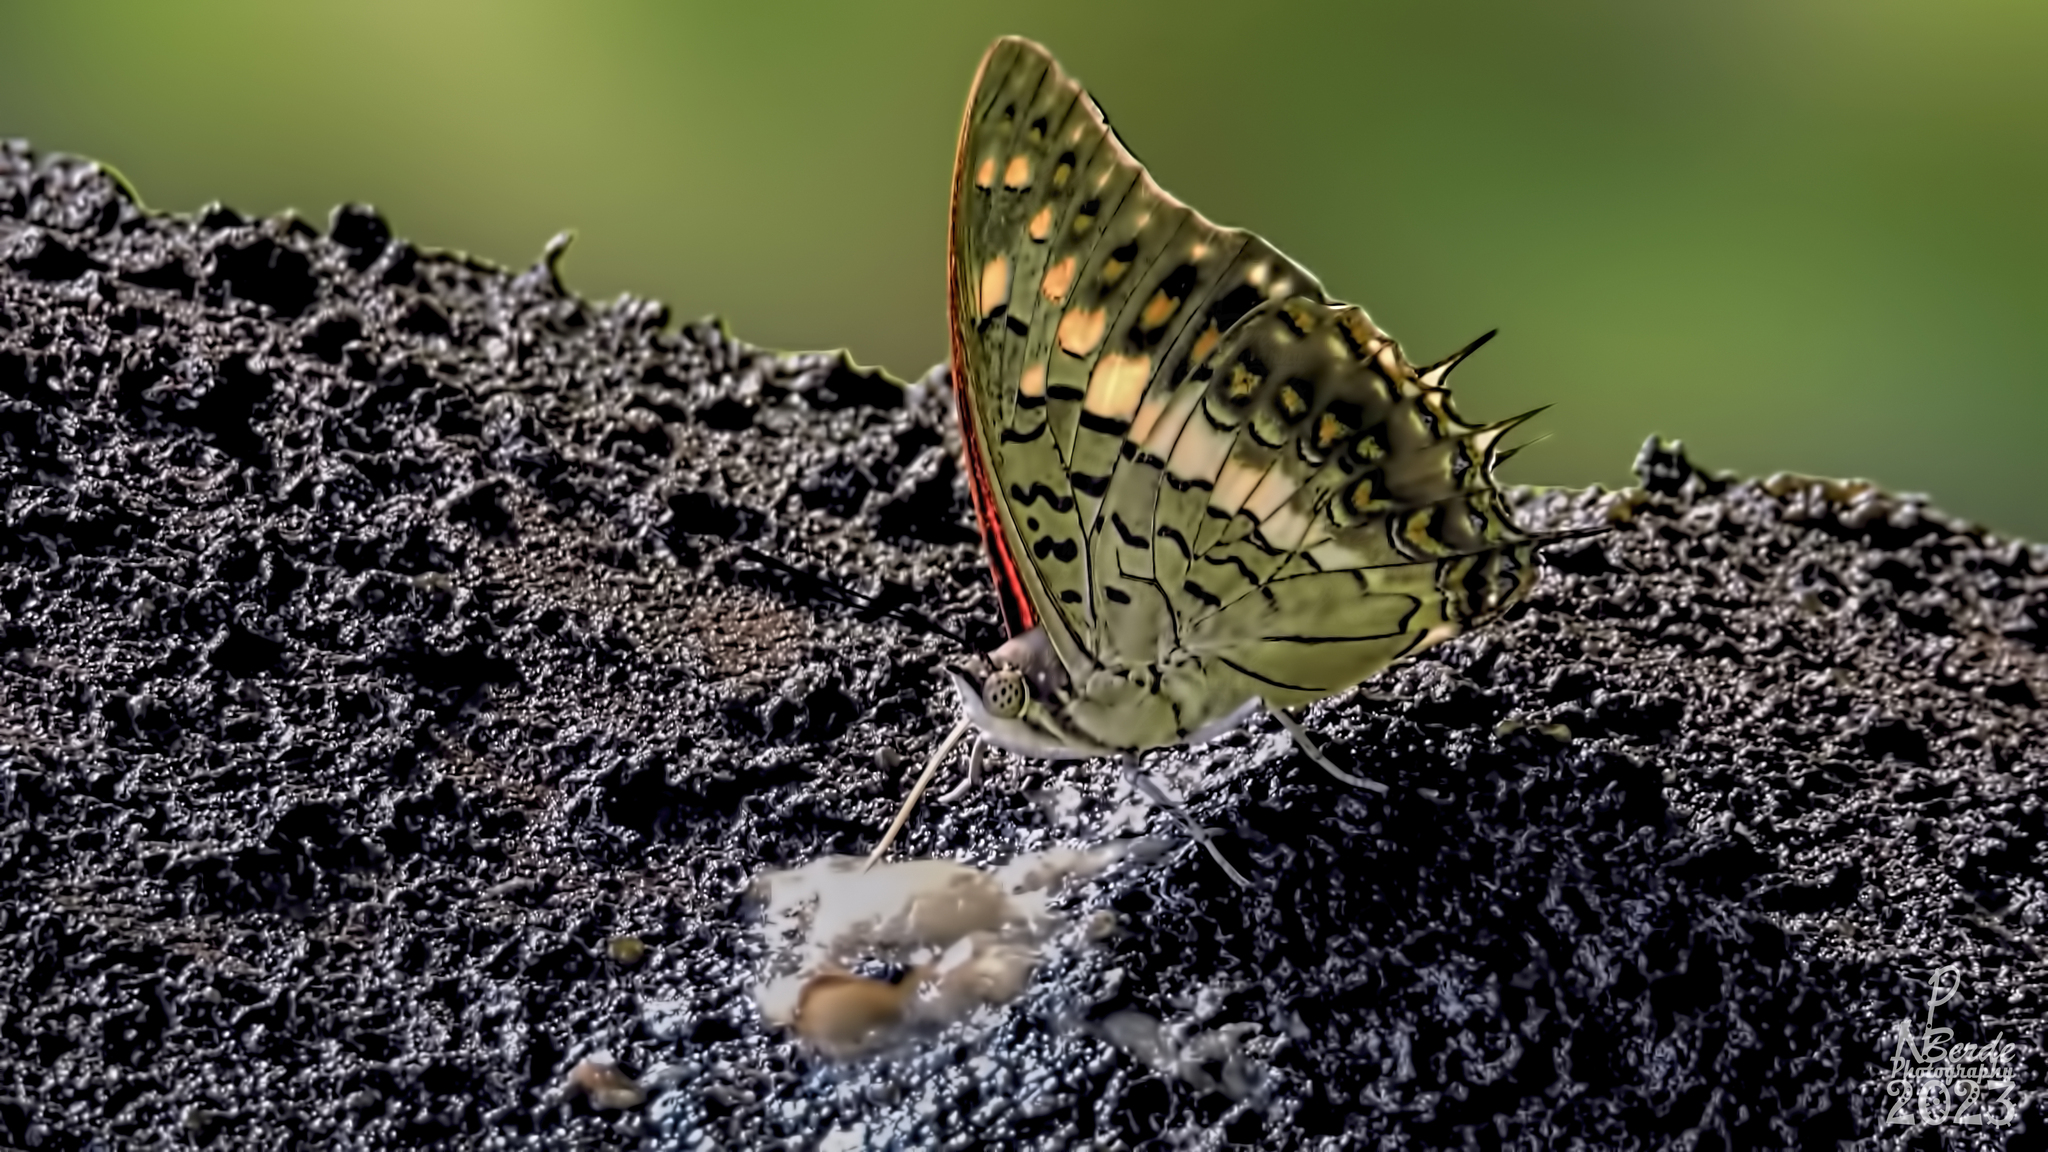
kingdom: Animalia
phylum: Arthropoda
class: Insecta
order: Lepidoptera
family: Nymphalidae
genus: Charaxes
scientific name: Charaxes solon
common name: Black rajah
